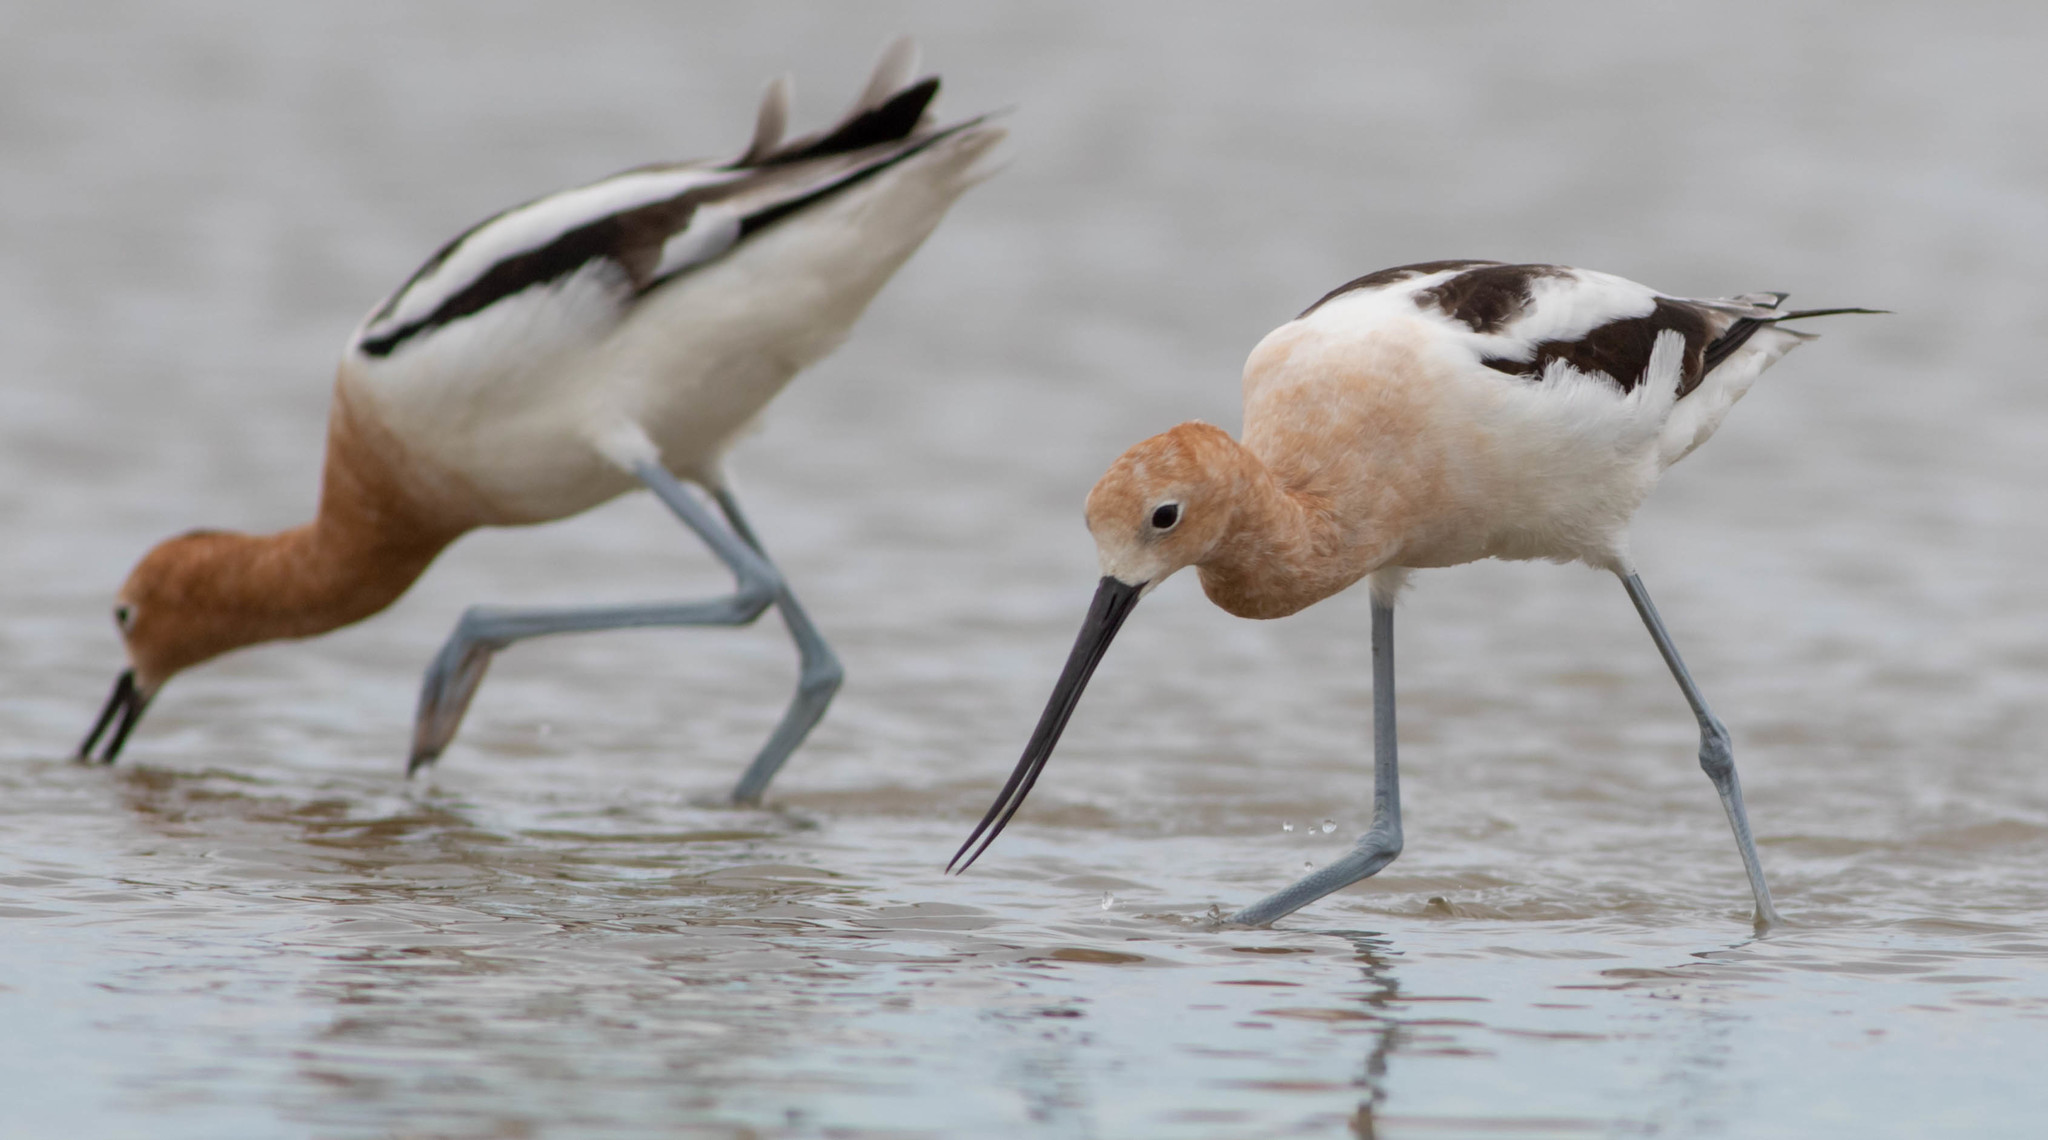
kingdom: Animalia
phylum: Chordata
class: Aves
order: Charadriiformes
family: Recurvirostridae
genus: Recurvirostra
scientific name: Recurvirostra americana
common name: American avocet
